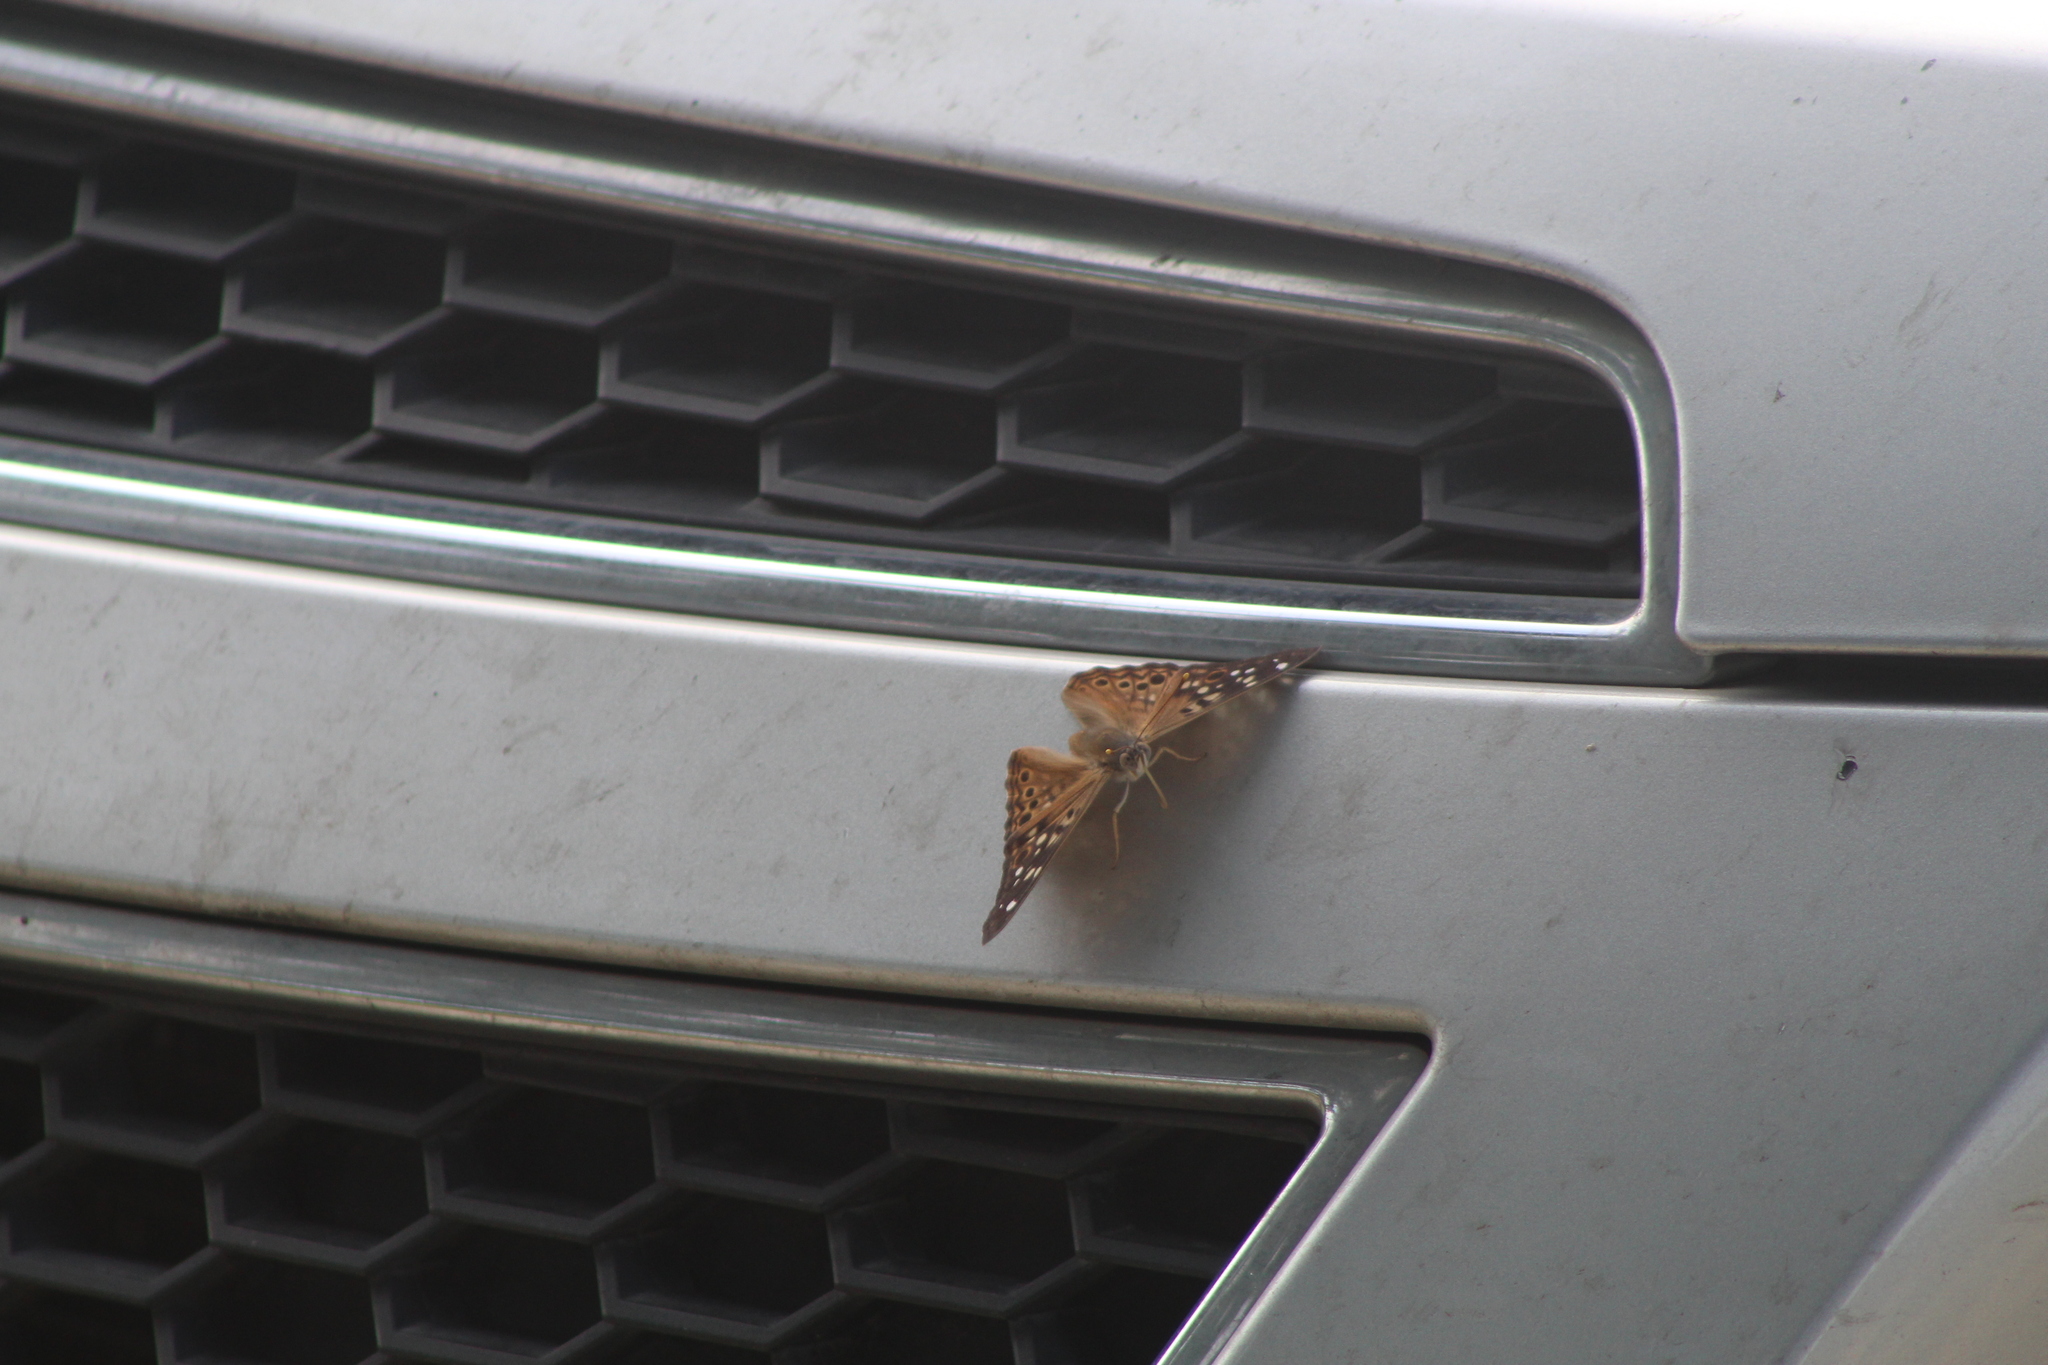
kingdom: Animalia
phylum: Arthropoda
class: Insecta
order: Lepidoptera
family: Nymphalidae
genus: Asterocampa
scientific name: Asterocampa celtis
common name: Hackberry emperor
